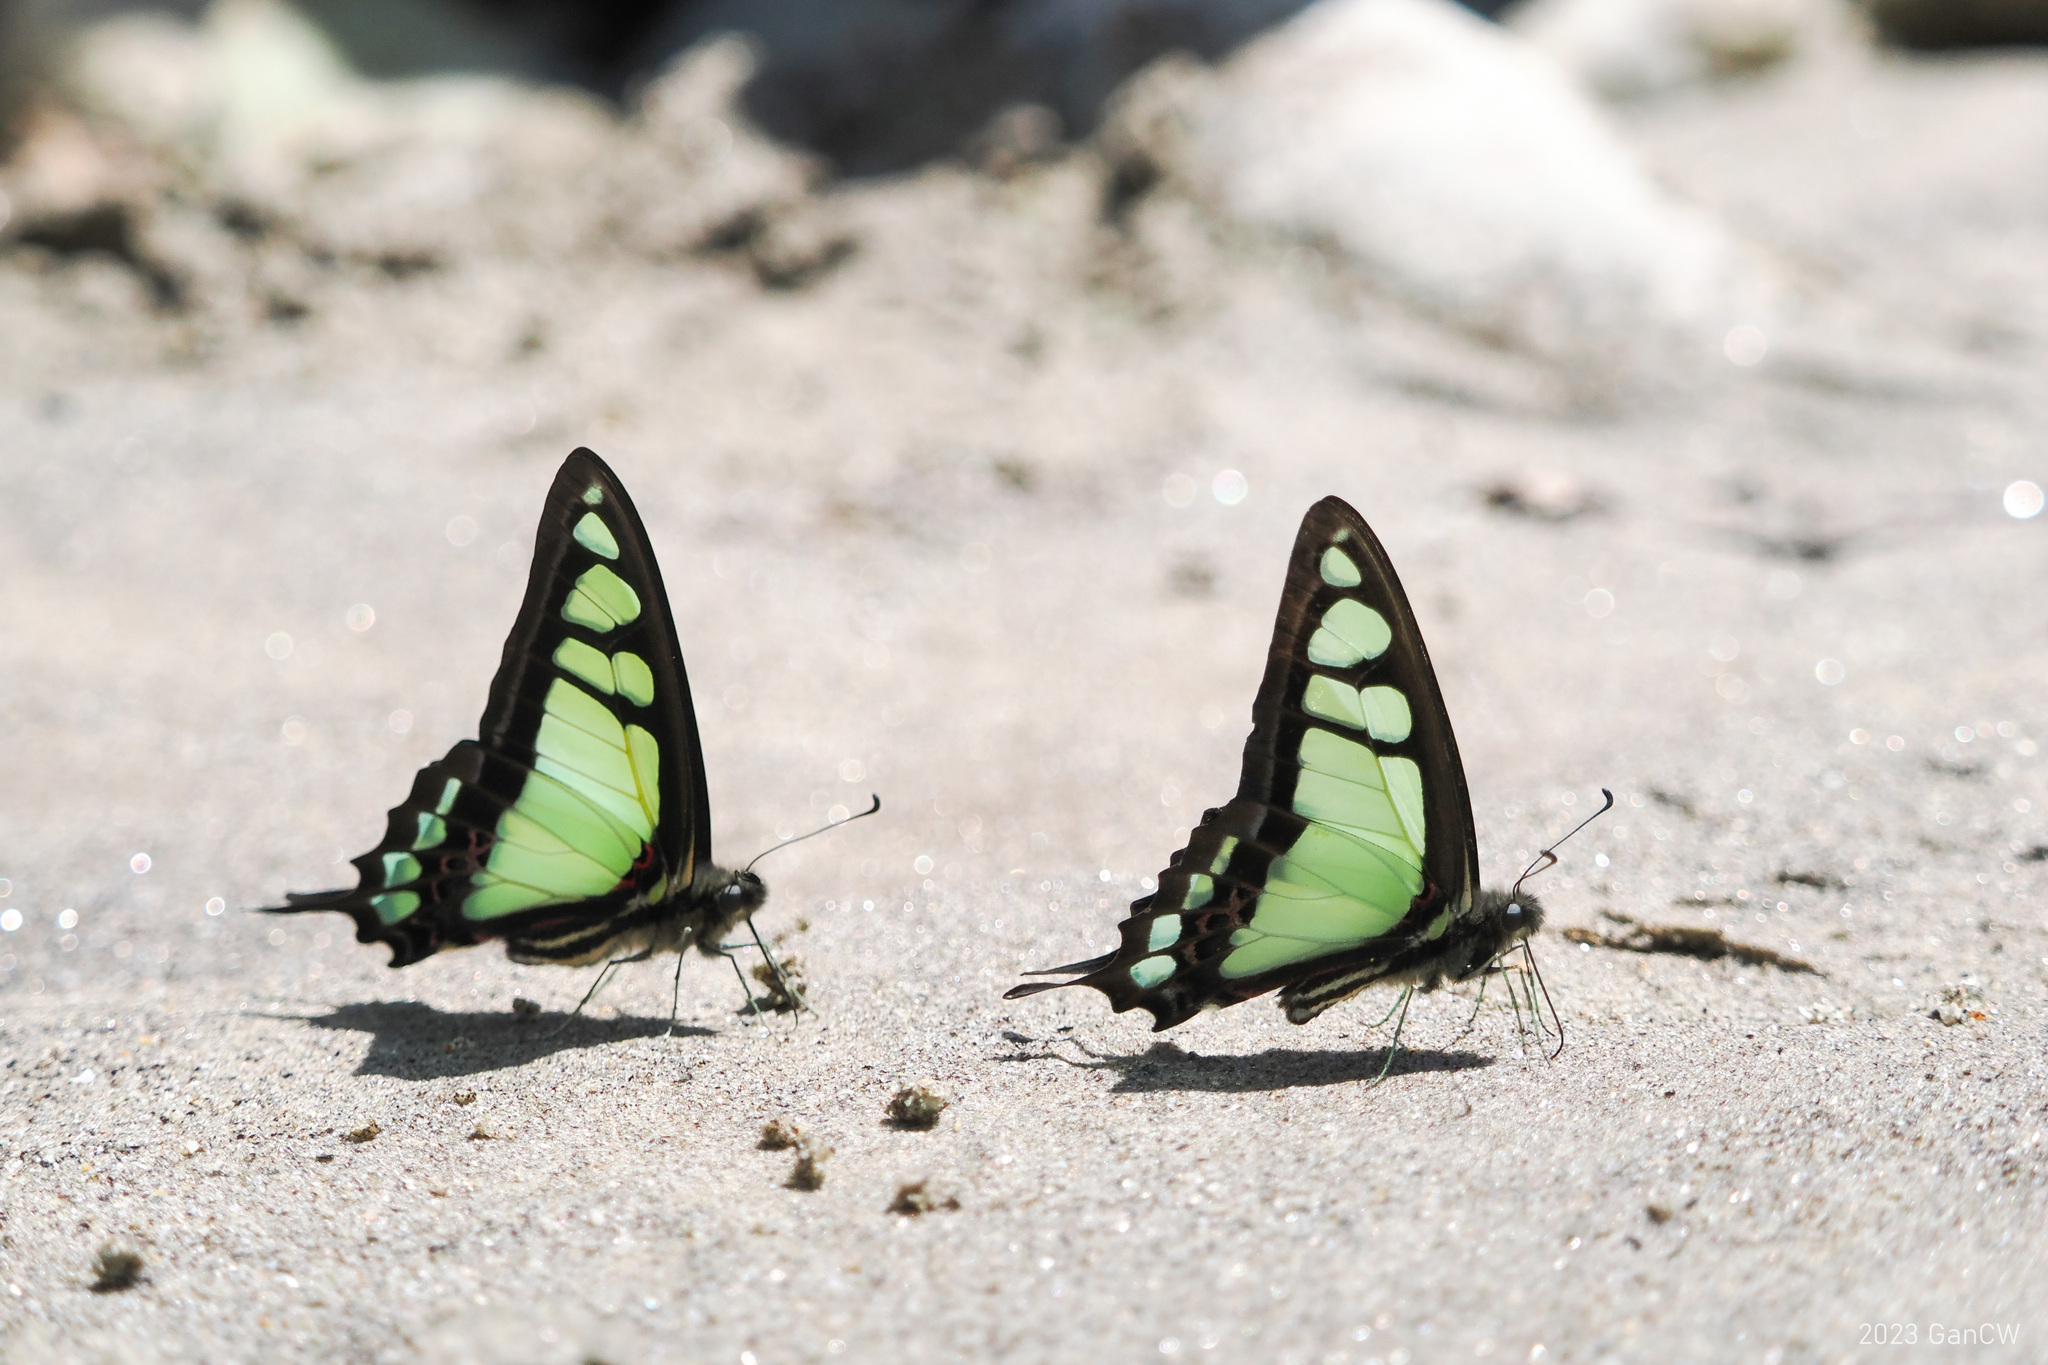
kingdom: Animalia
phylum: Arthropoda
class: Insecta
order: Lepidoptera
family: Papilionidae
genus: Graphium
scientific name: Graphium cloanthus
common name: Glassy bluebottle
